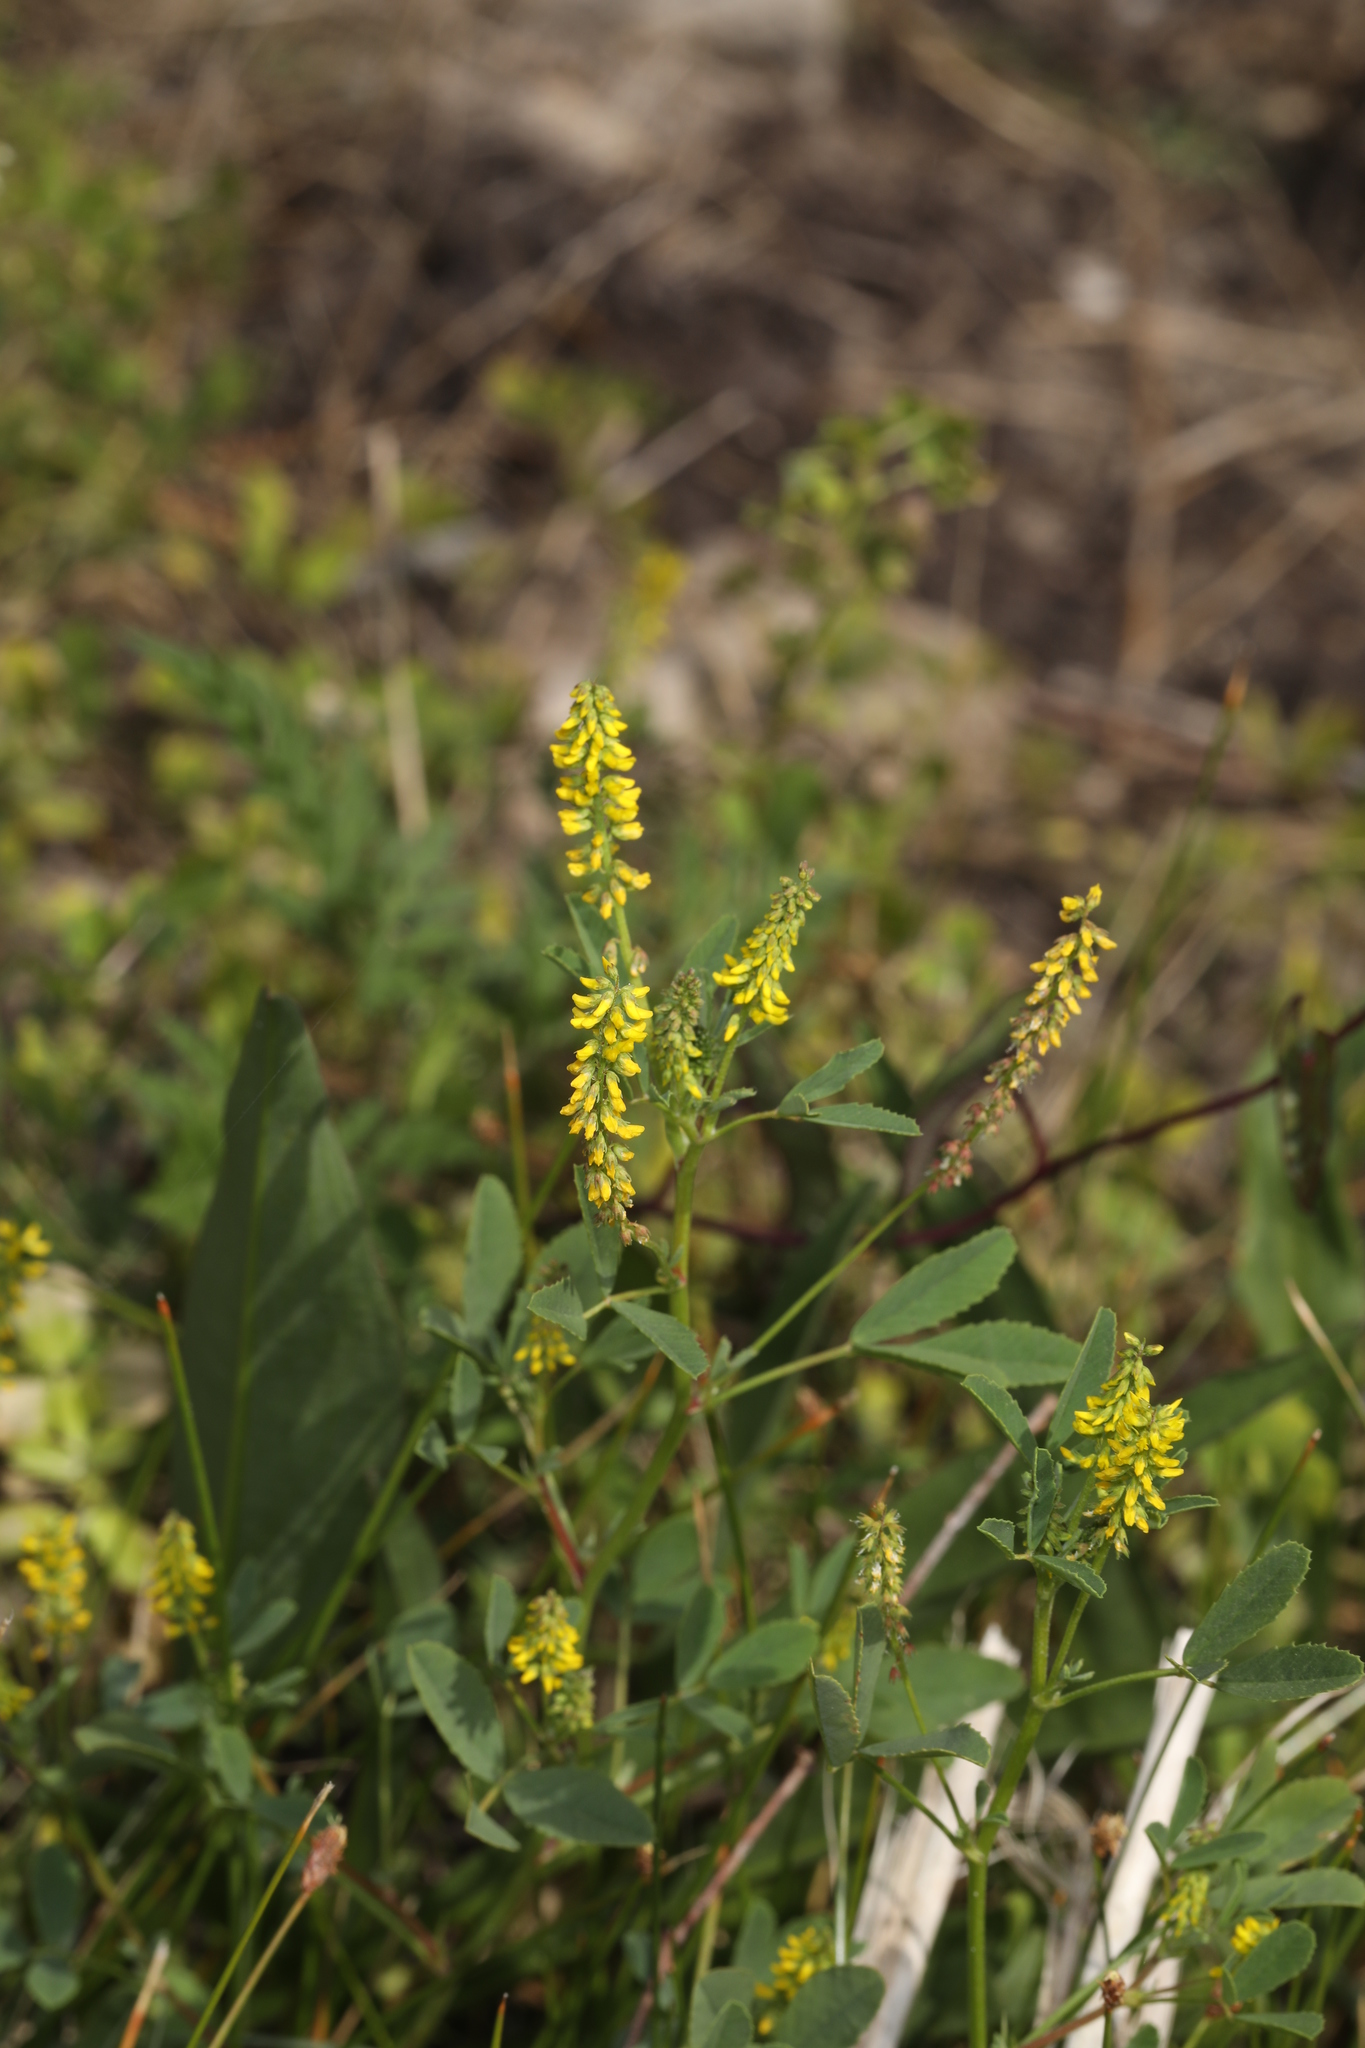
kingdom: Plantae
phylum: Tracheophyta
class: Magnoliopsida
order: Fabales
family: Fabaceae
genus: Melilotus
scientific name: Melilotus indicus
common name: Small melilot
